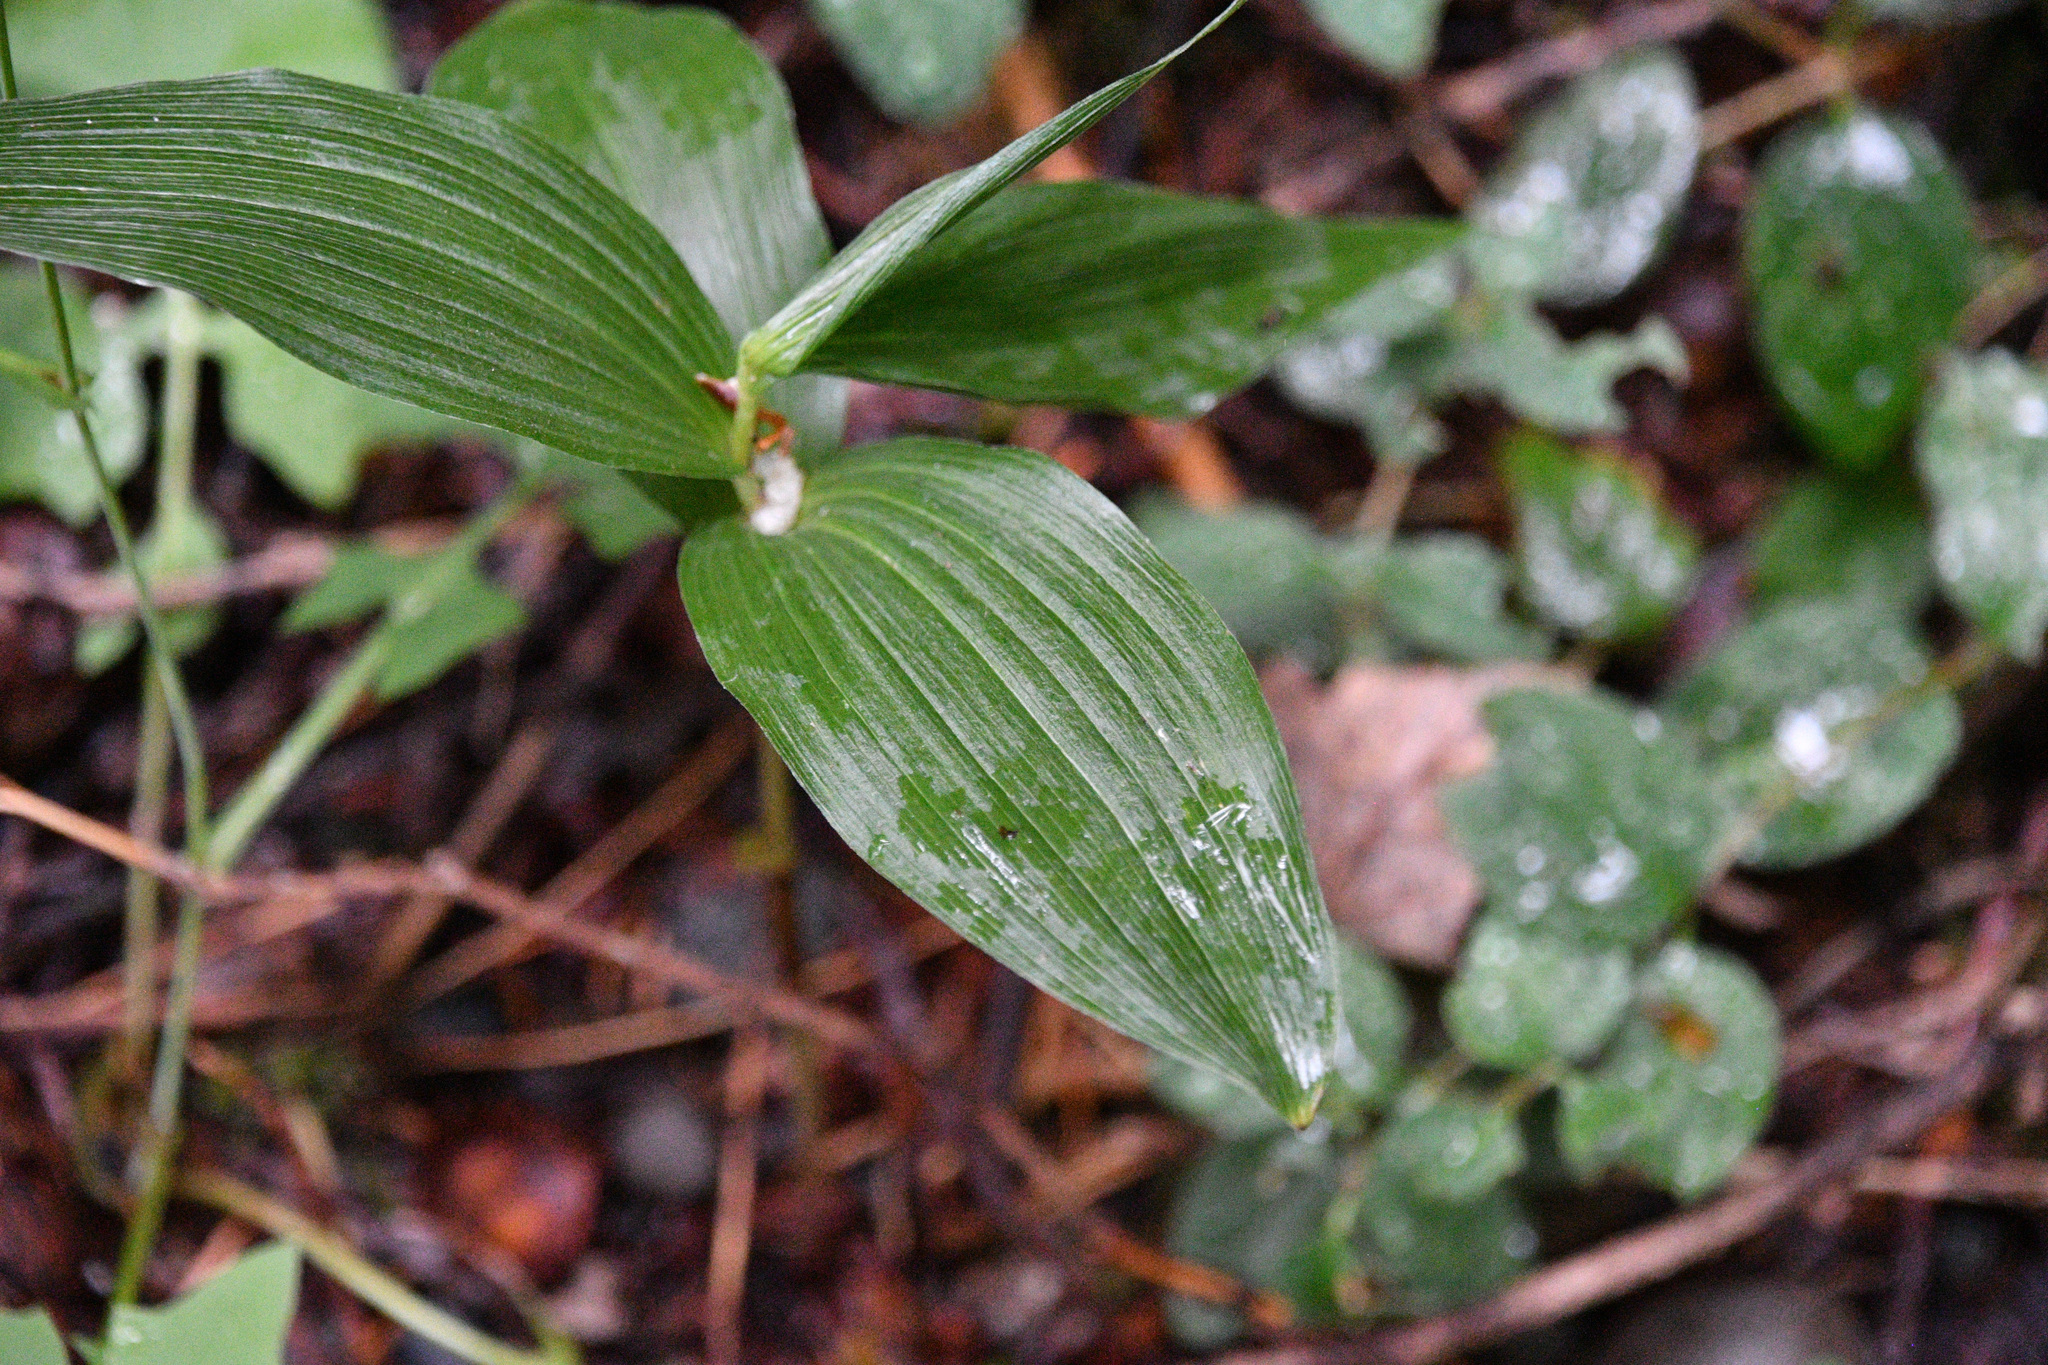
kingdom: Plantae
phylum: Tracheophyta
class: Liliopsida
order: Asparagales
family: Orchidaceae
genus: Epipactis
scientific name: Epipactis helleborine
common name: Broad-leaved helleborine
